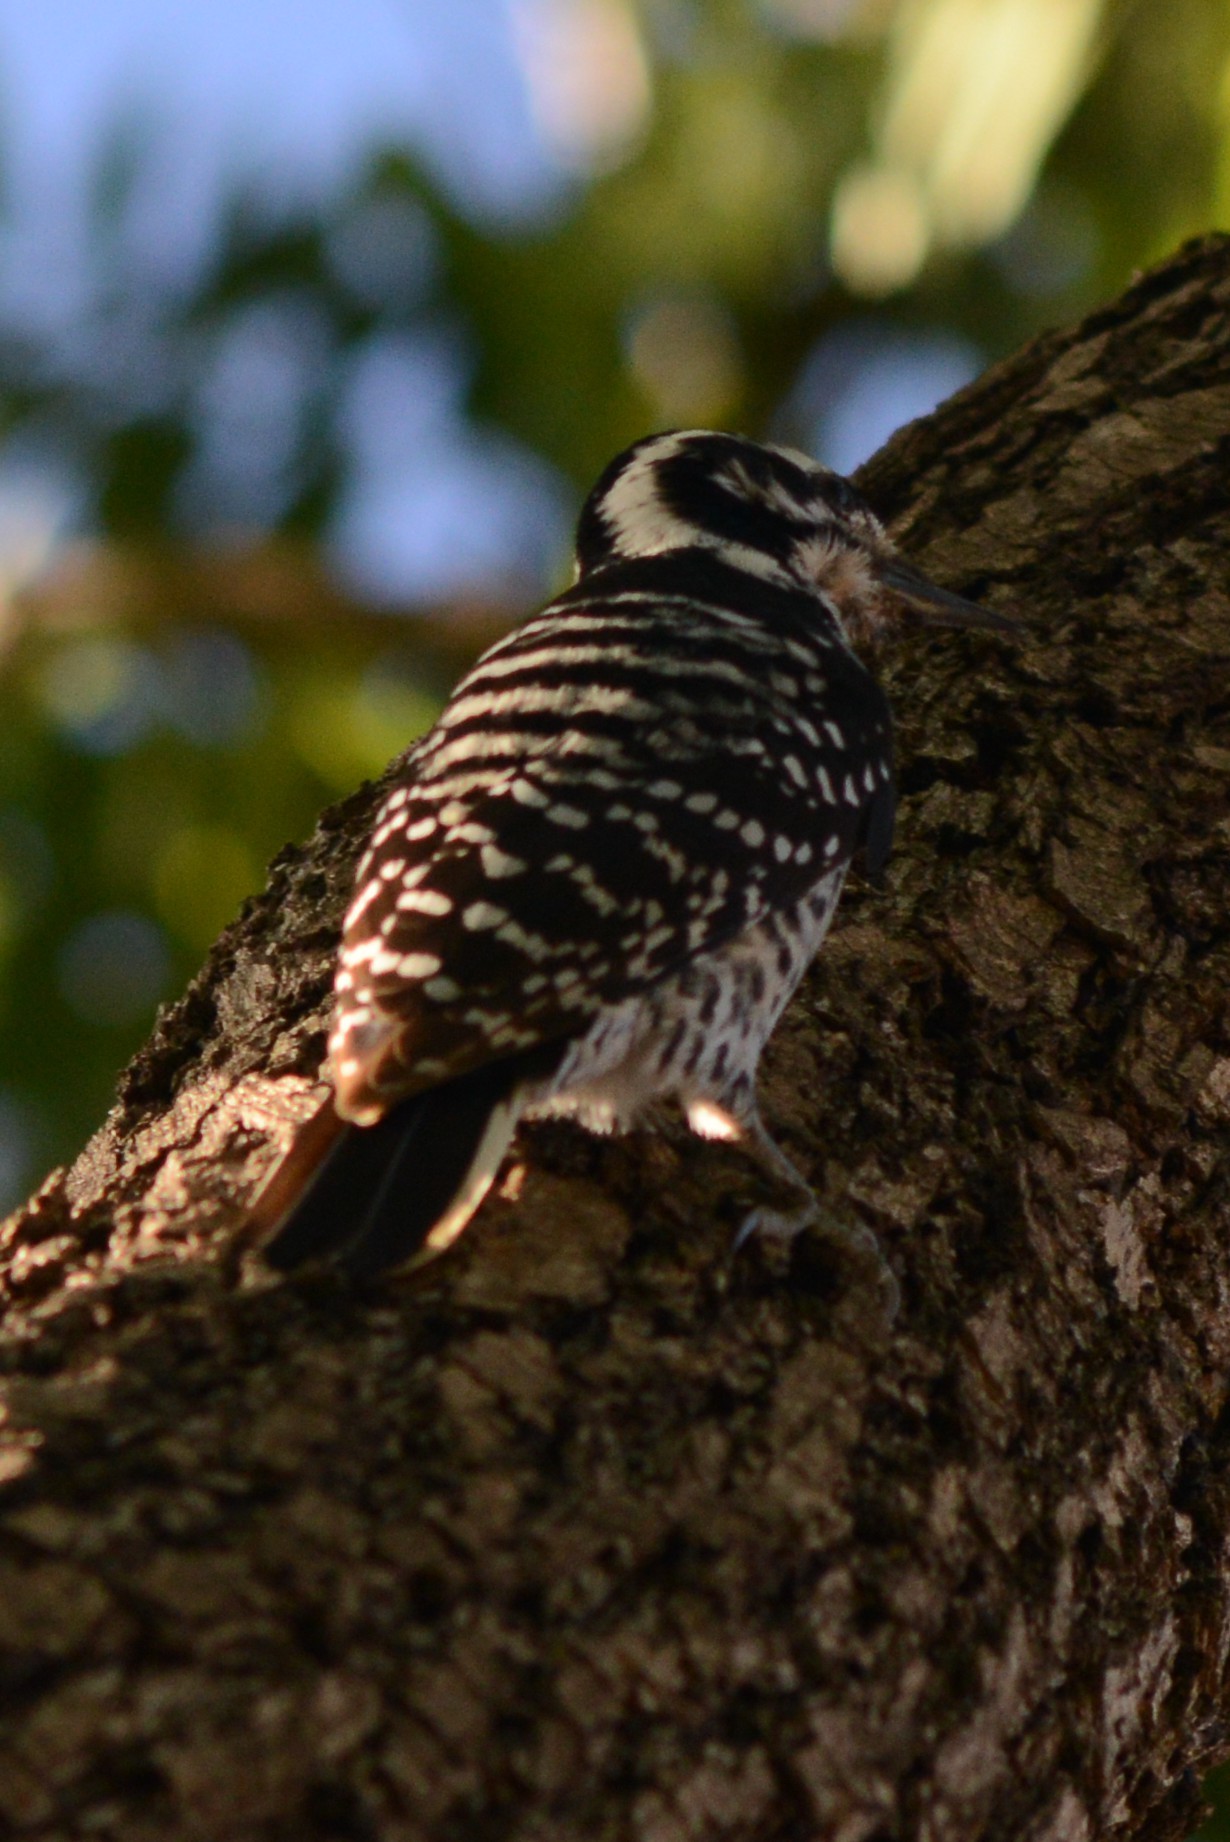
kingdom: Animalia
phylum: Chordata
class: Aves
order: Piciformes
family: Picidae
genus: Dryobates
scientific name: Dryobates nuttallii
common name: Nuttall's woodpecker
